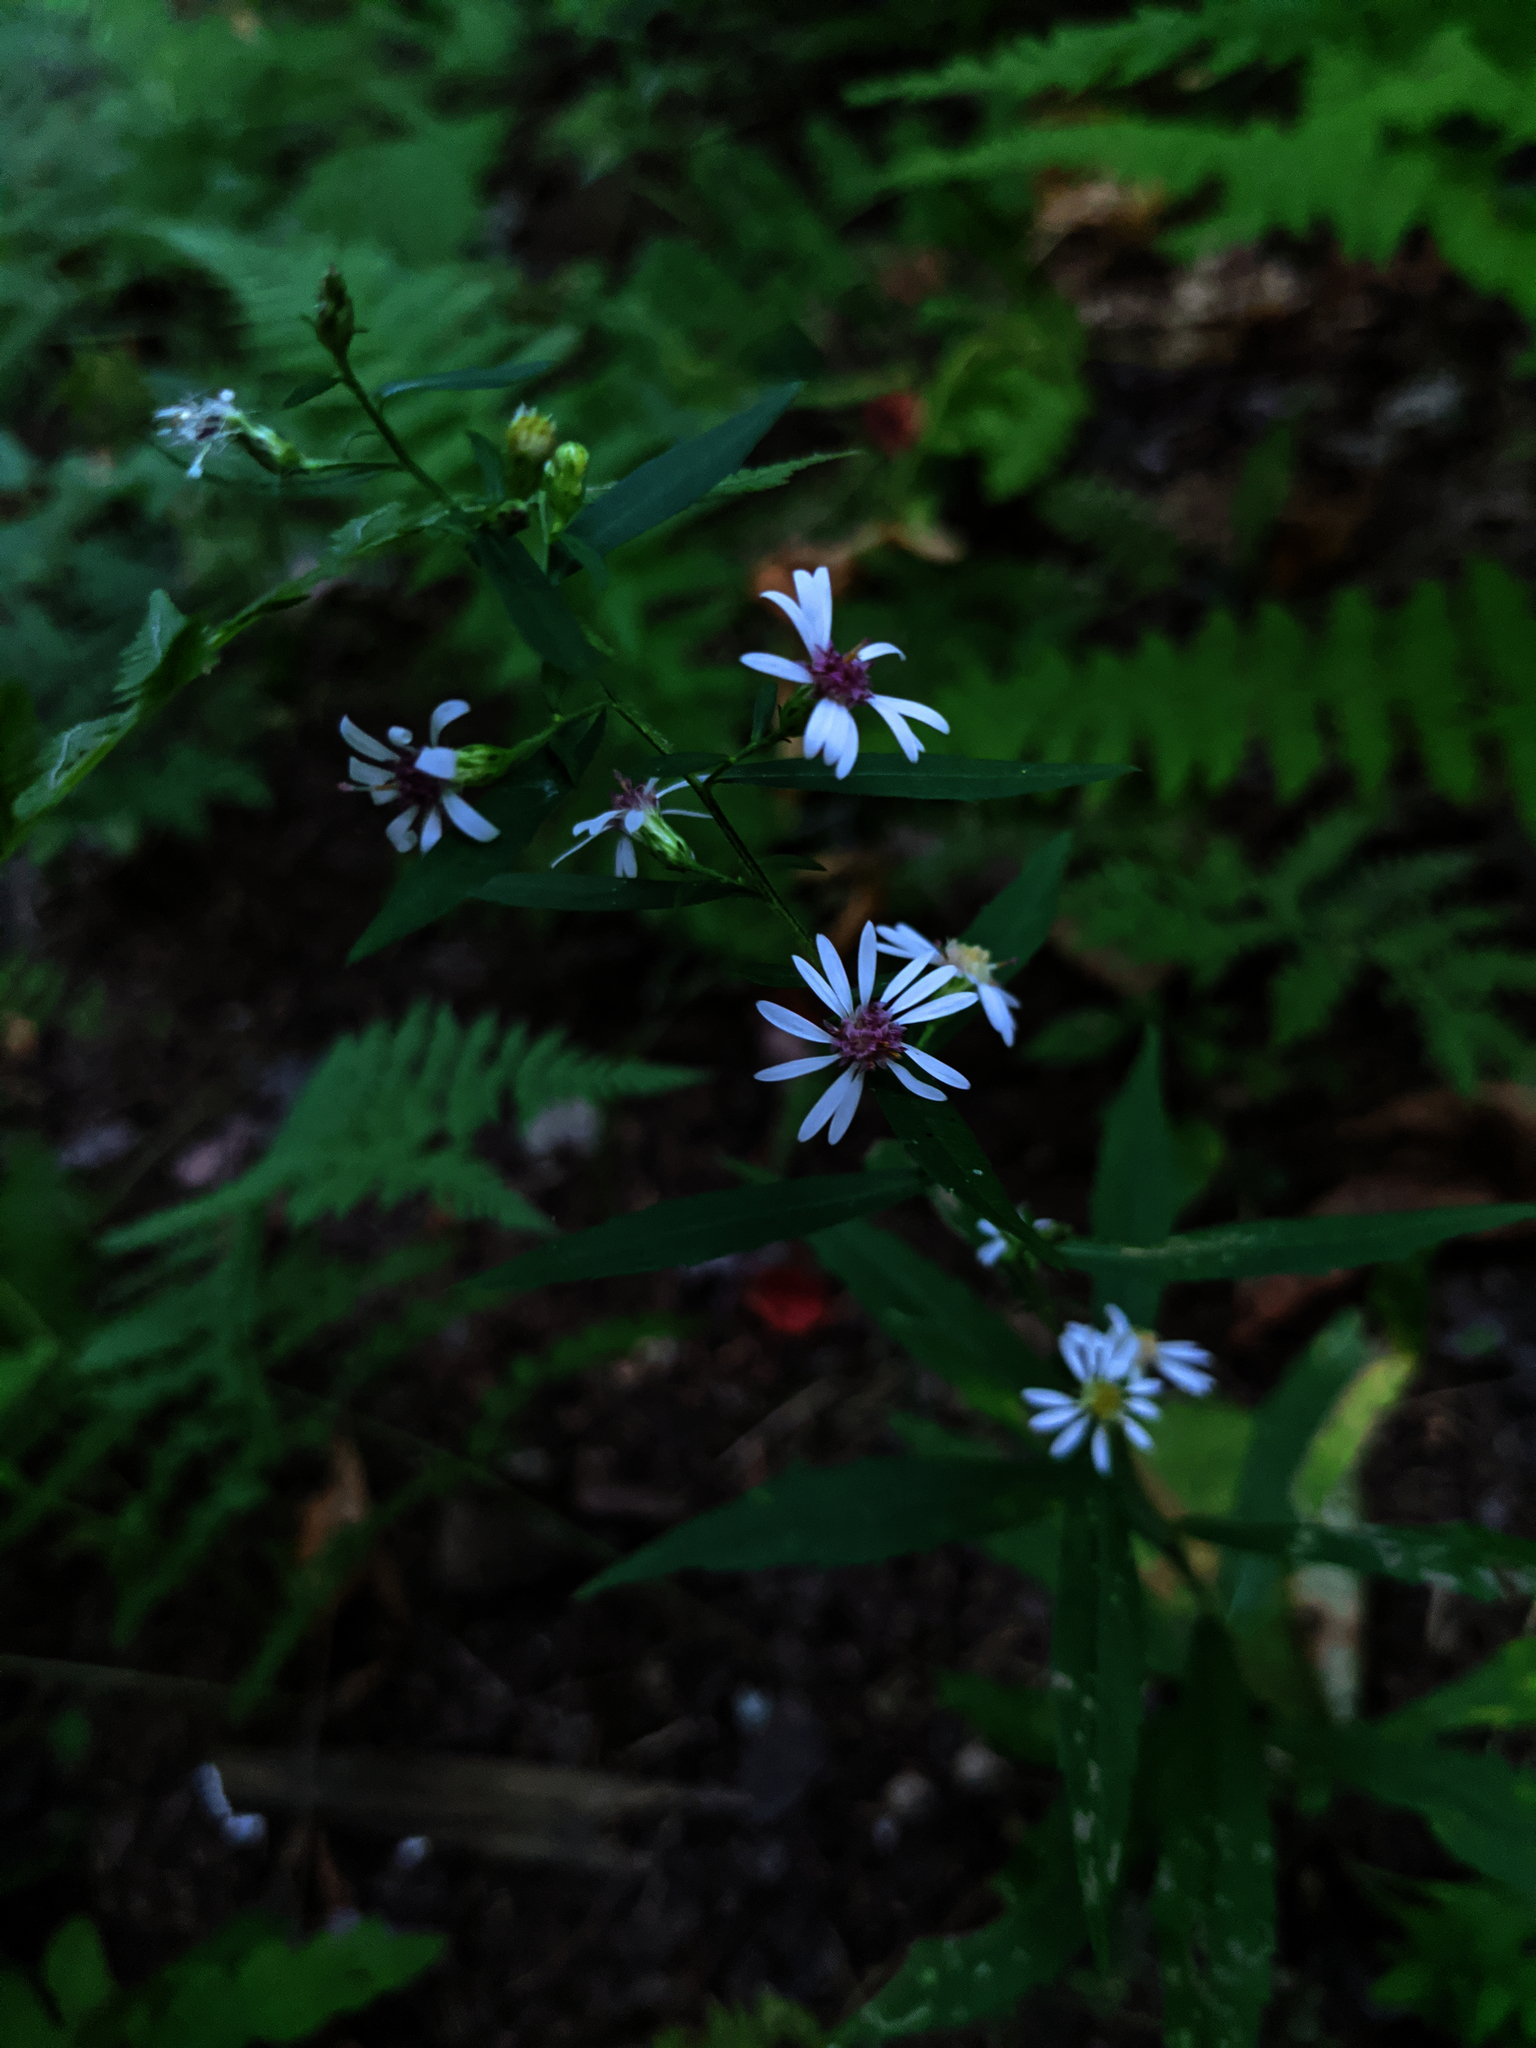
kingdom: Plantae
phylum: Tracheophyta
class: Magnoliopsida
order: Asterales
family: Asteraceae
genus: Symphyotrichum
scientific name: Symphyotrichum lateriflorum
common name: Calico aster
